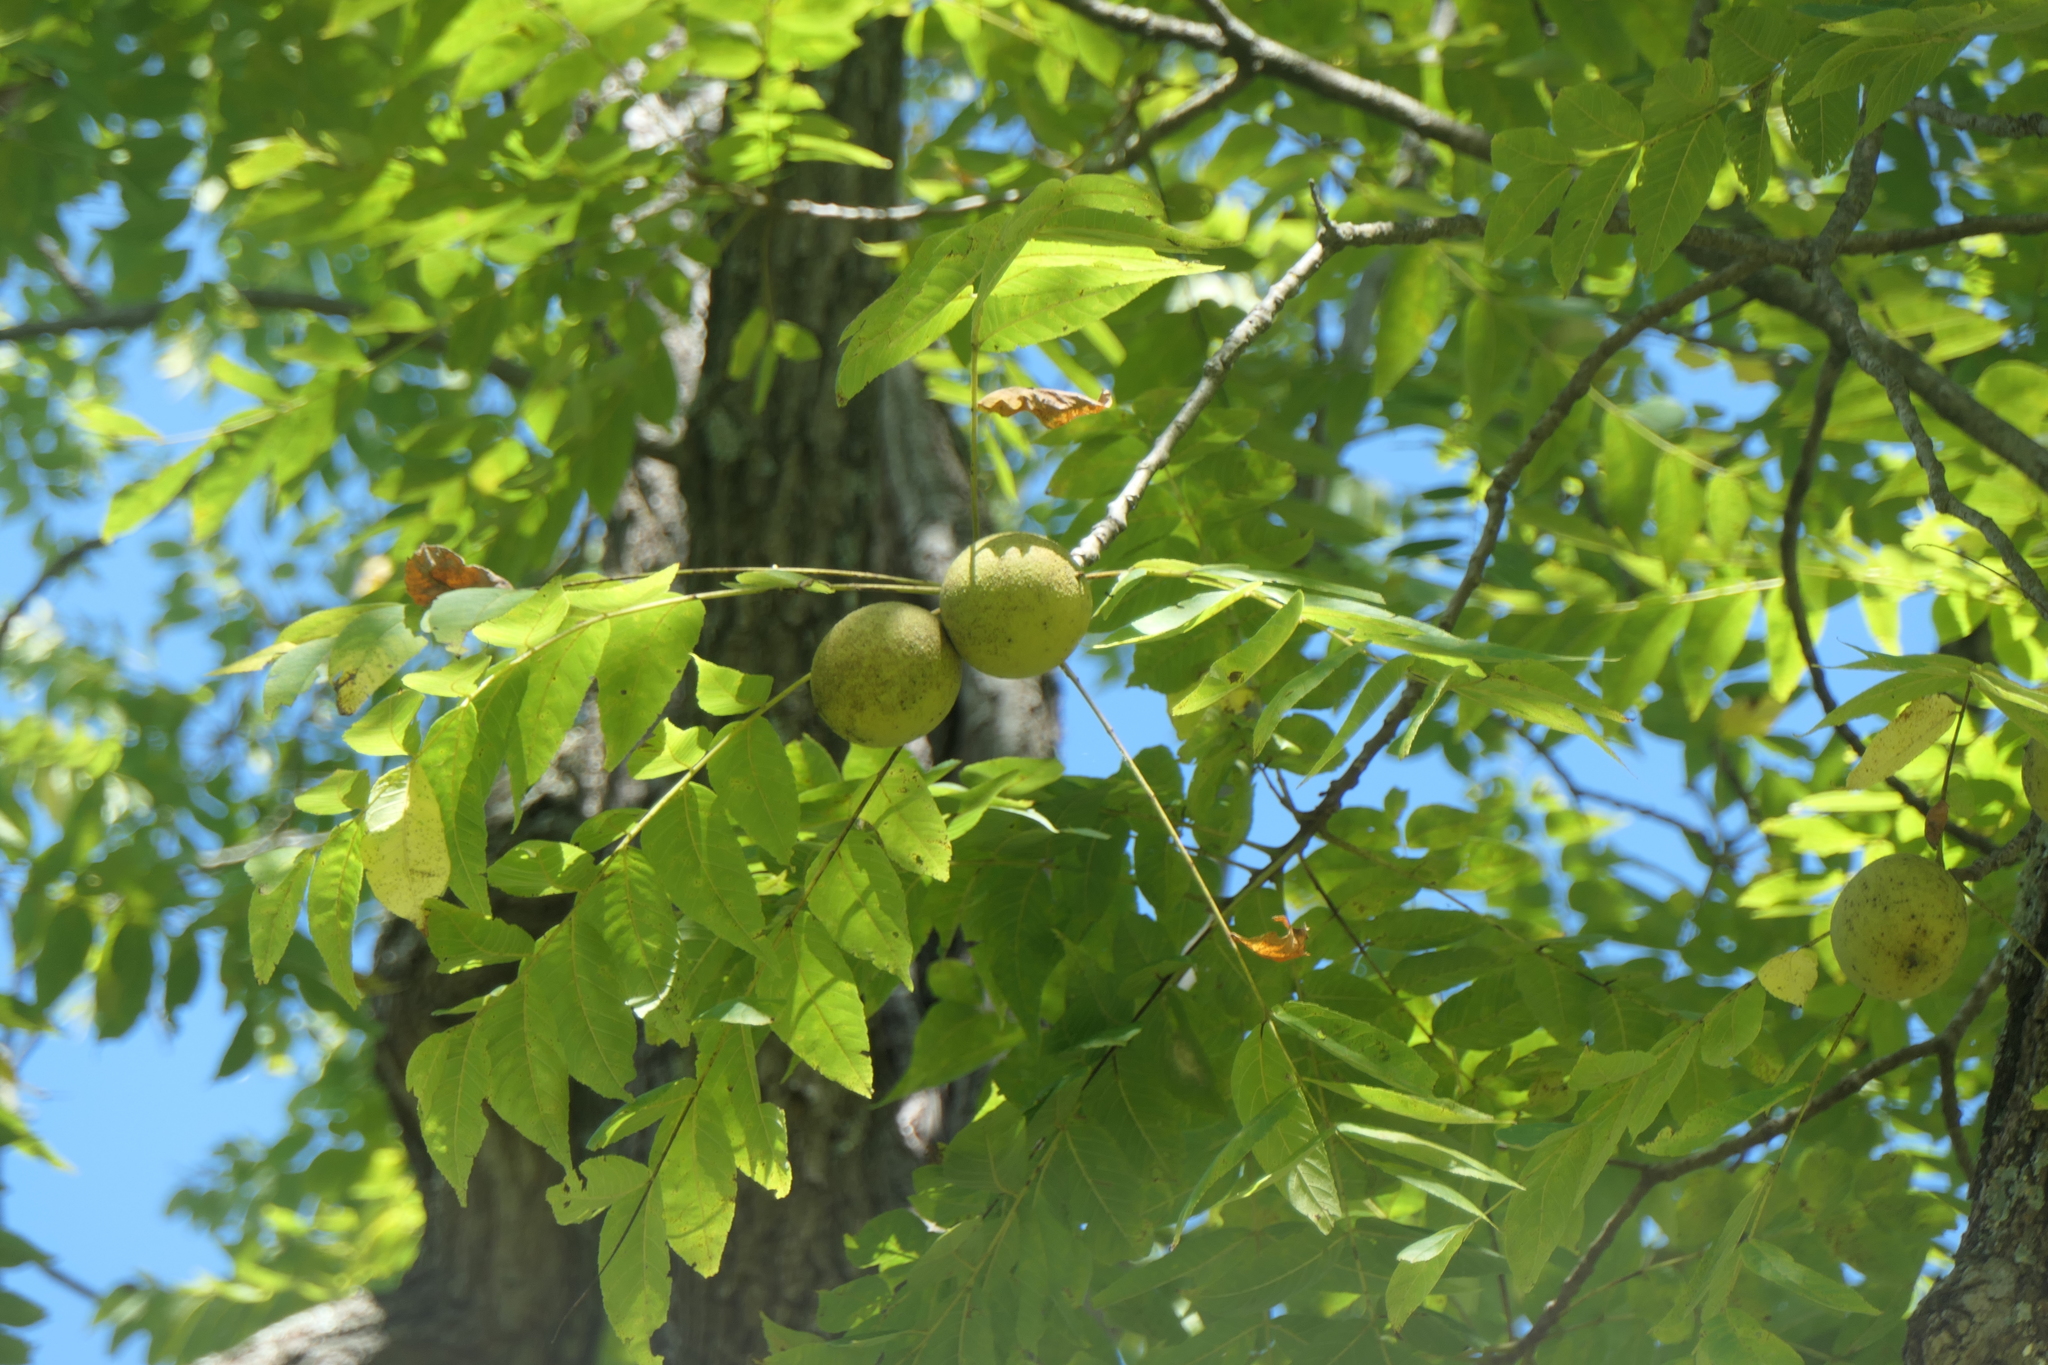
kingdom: Plantae
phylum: Tracheophyta
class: Magnoliopsida
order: Fagales
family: Juglandaceae
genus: Juglans
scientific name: Juglans nigra
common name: Black walnut
